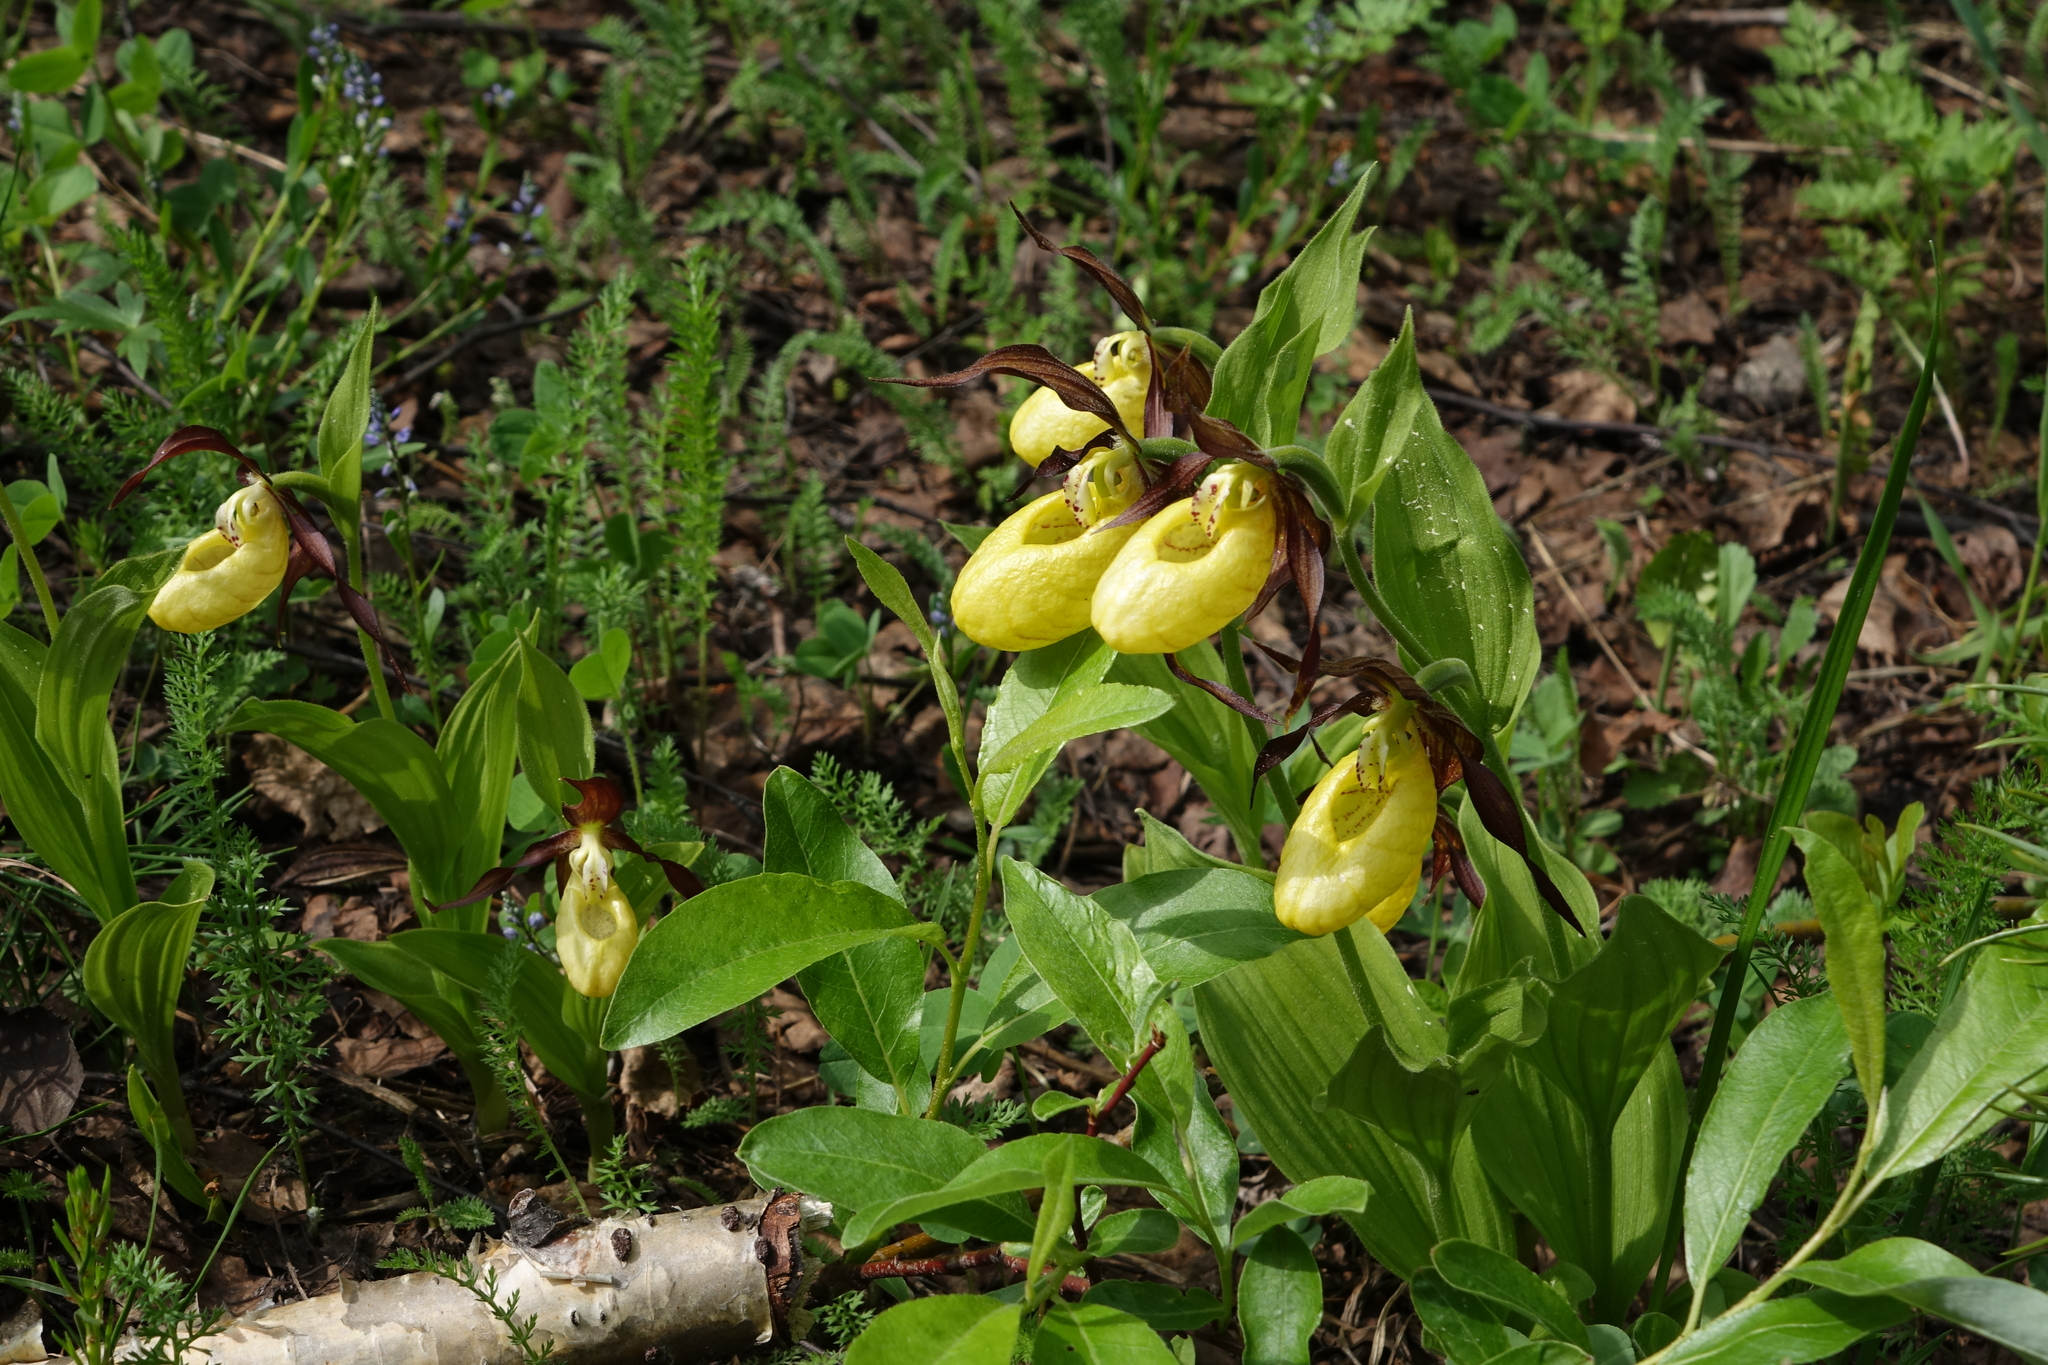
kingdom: Plantae
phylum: Tracheophyta
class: Liliopsida
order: Asparagales
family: Orchidaceae
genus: Cypripedium
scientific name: Cypripedium calceolus
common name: Lady's-slipper
